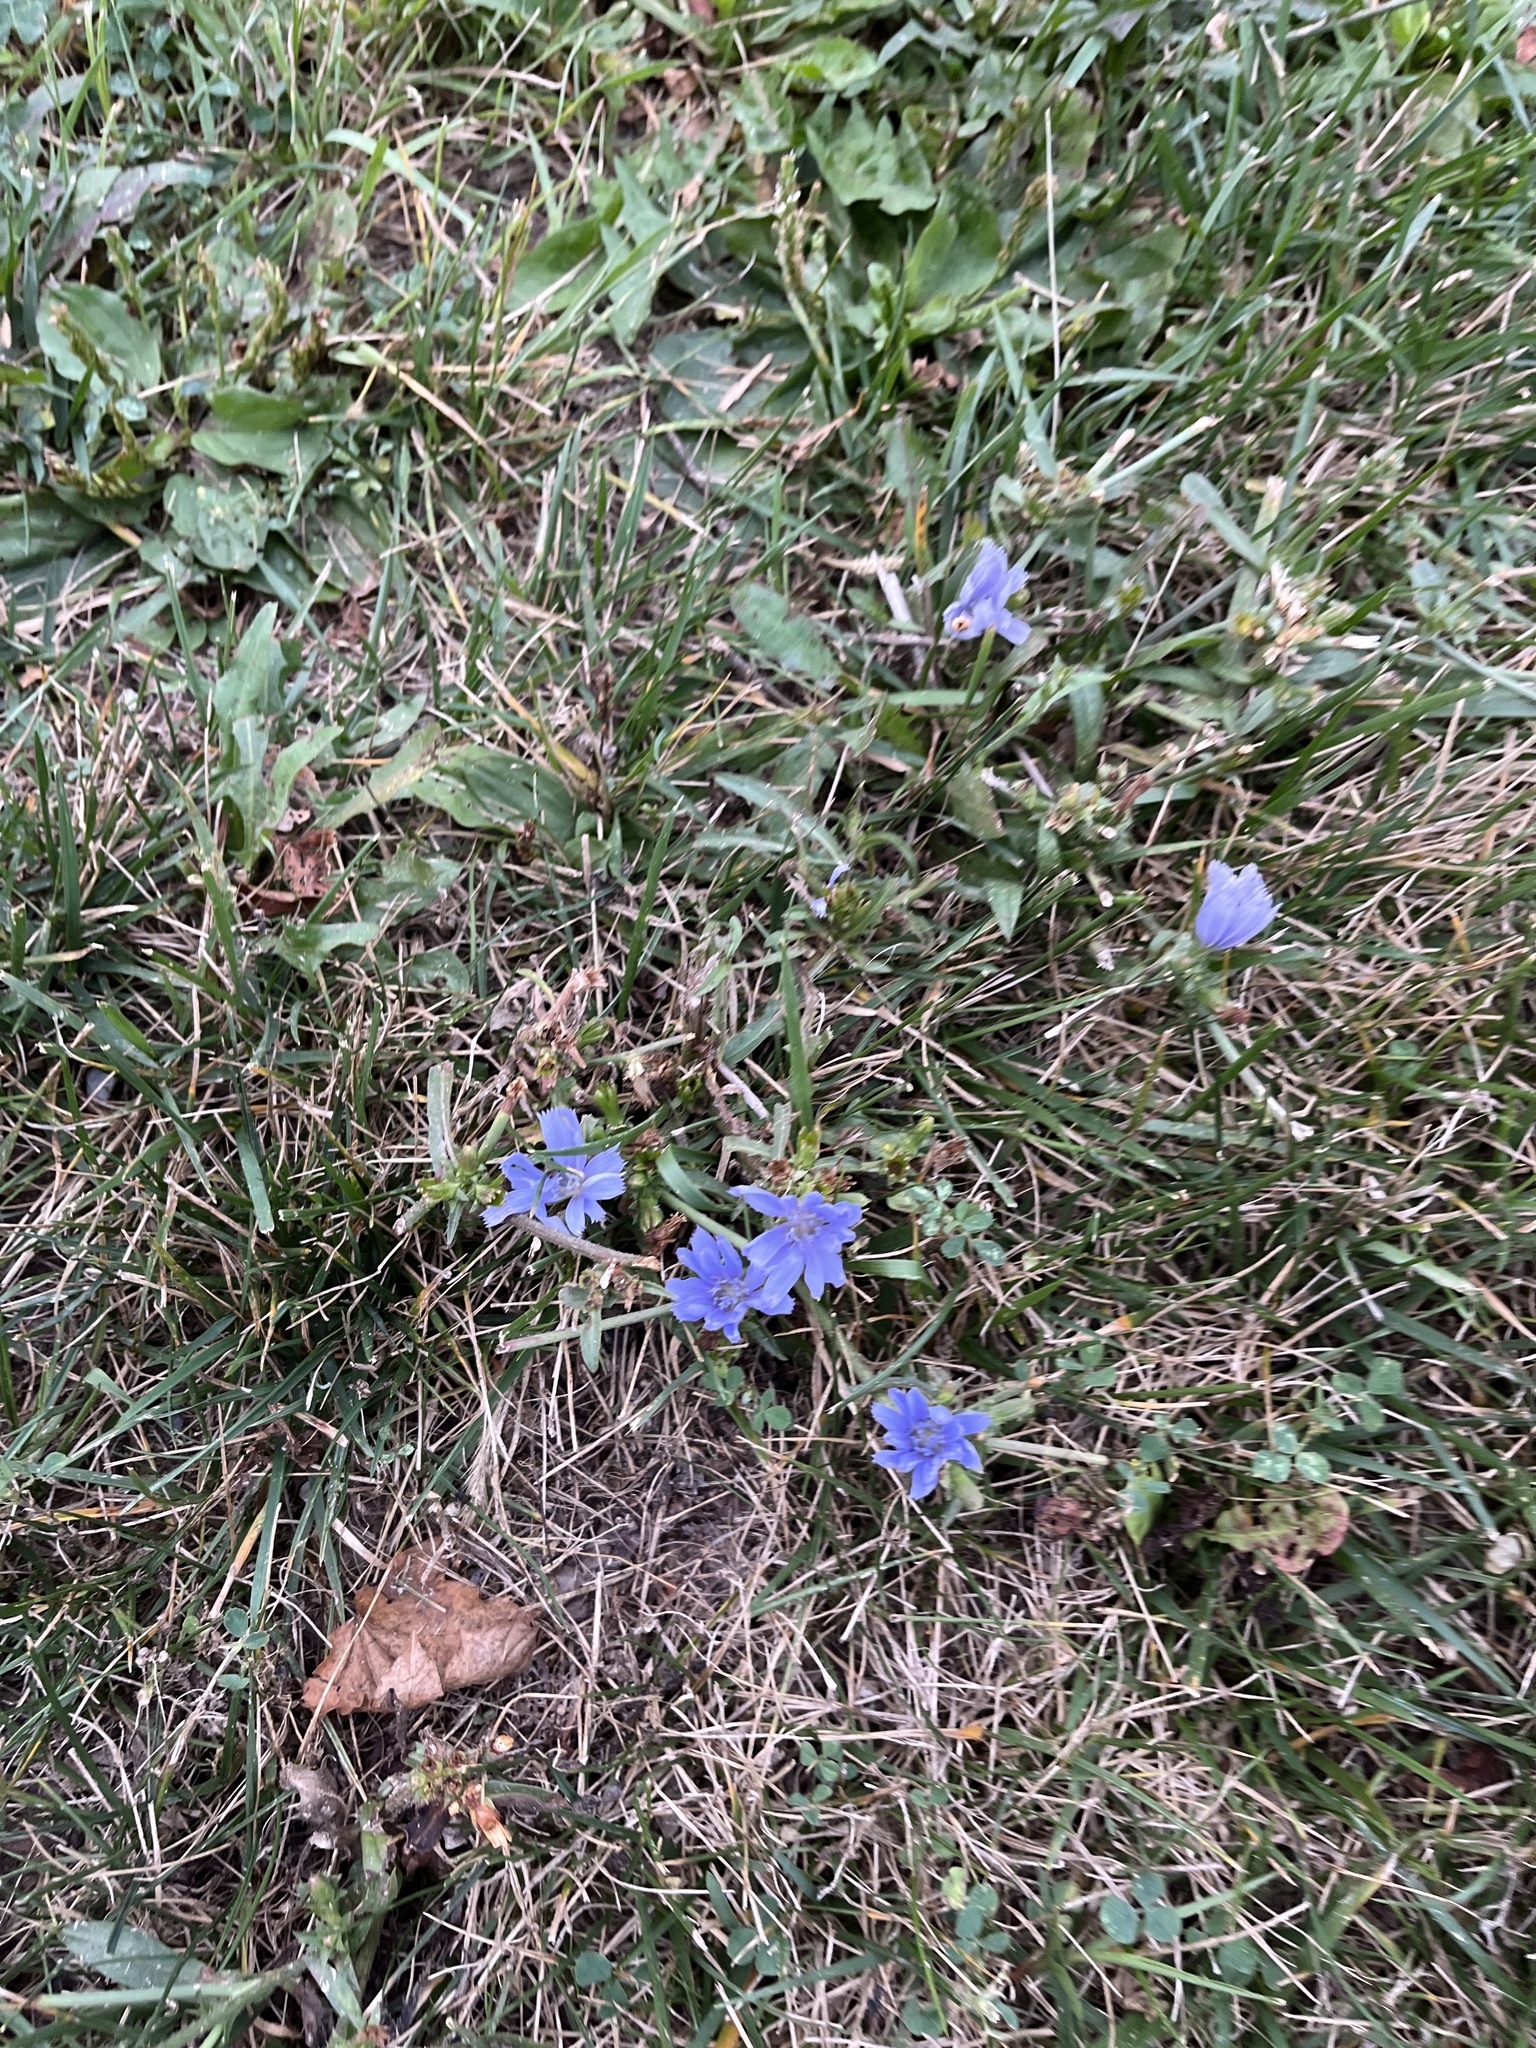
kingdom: Plantae
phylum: Tracheophyta
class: Magnoliopsida
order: Asterales
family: Asteraceae
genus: Cichorium
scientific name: Cichorium intybus
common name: Chicory
